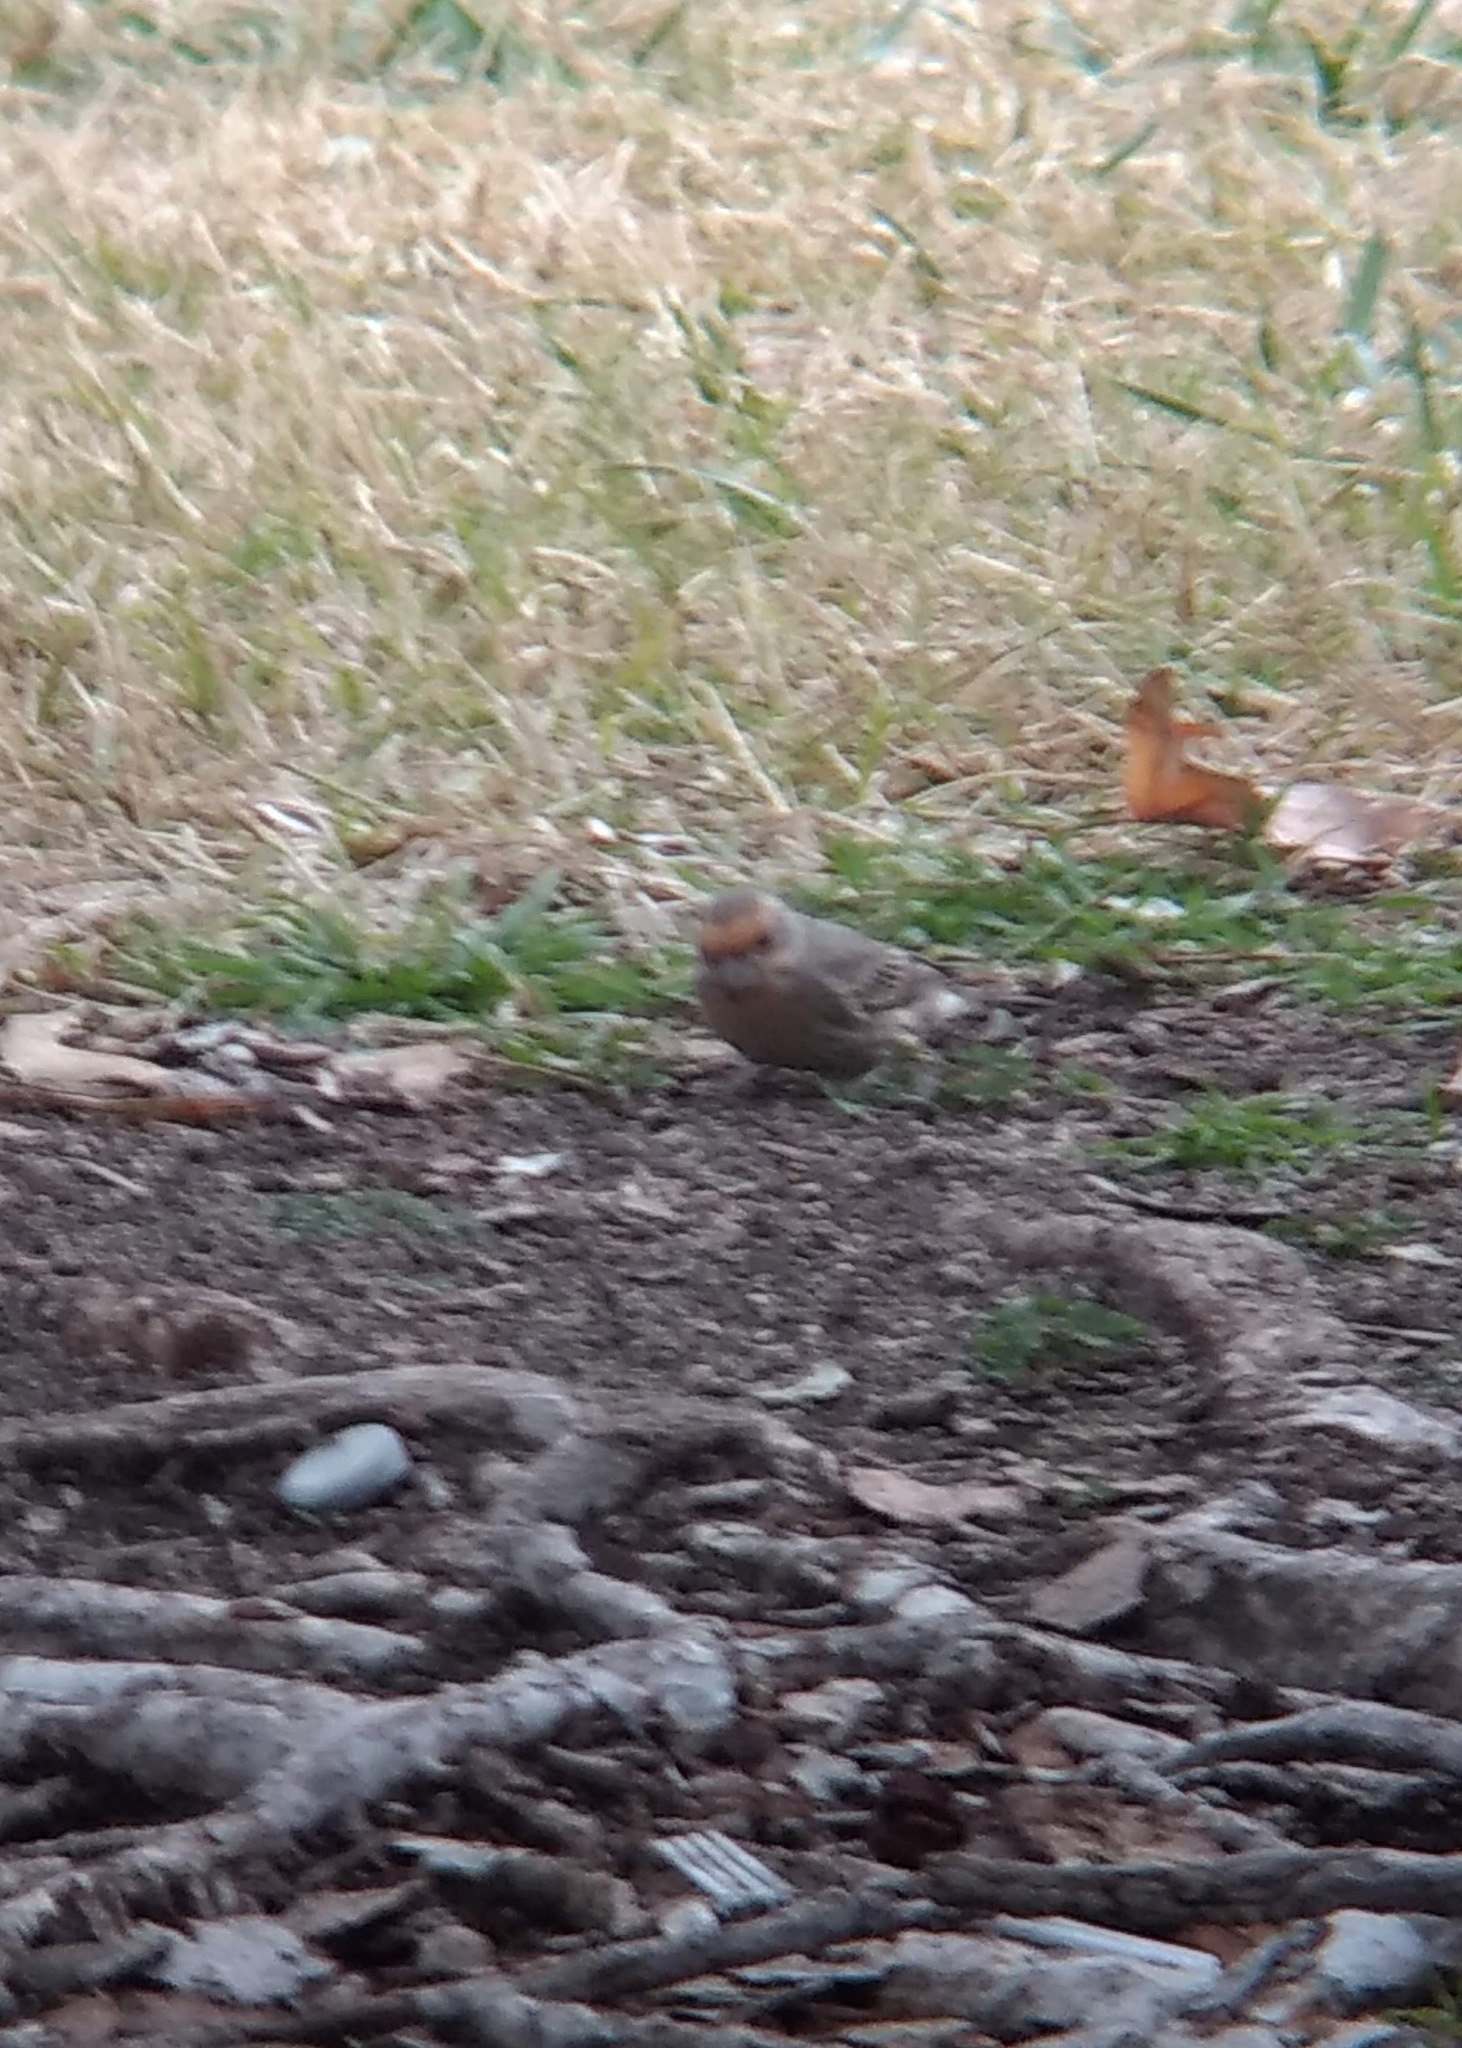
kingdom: Animalia
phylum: Chordata
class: Aves
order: Passeriformes
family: Fringillidae
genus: Haemorhous
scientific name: Haemorhous mexicanus
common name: House finch
